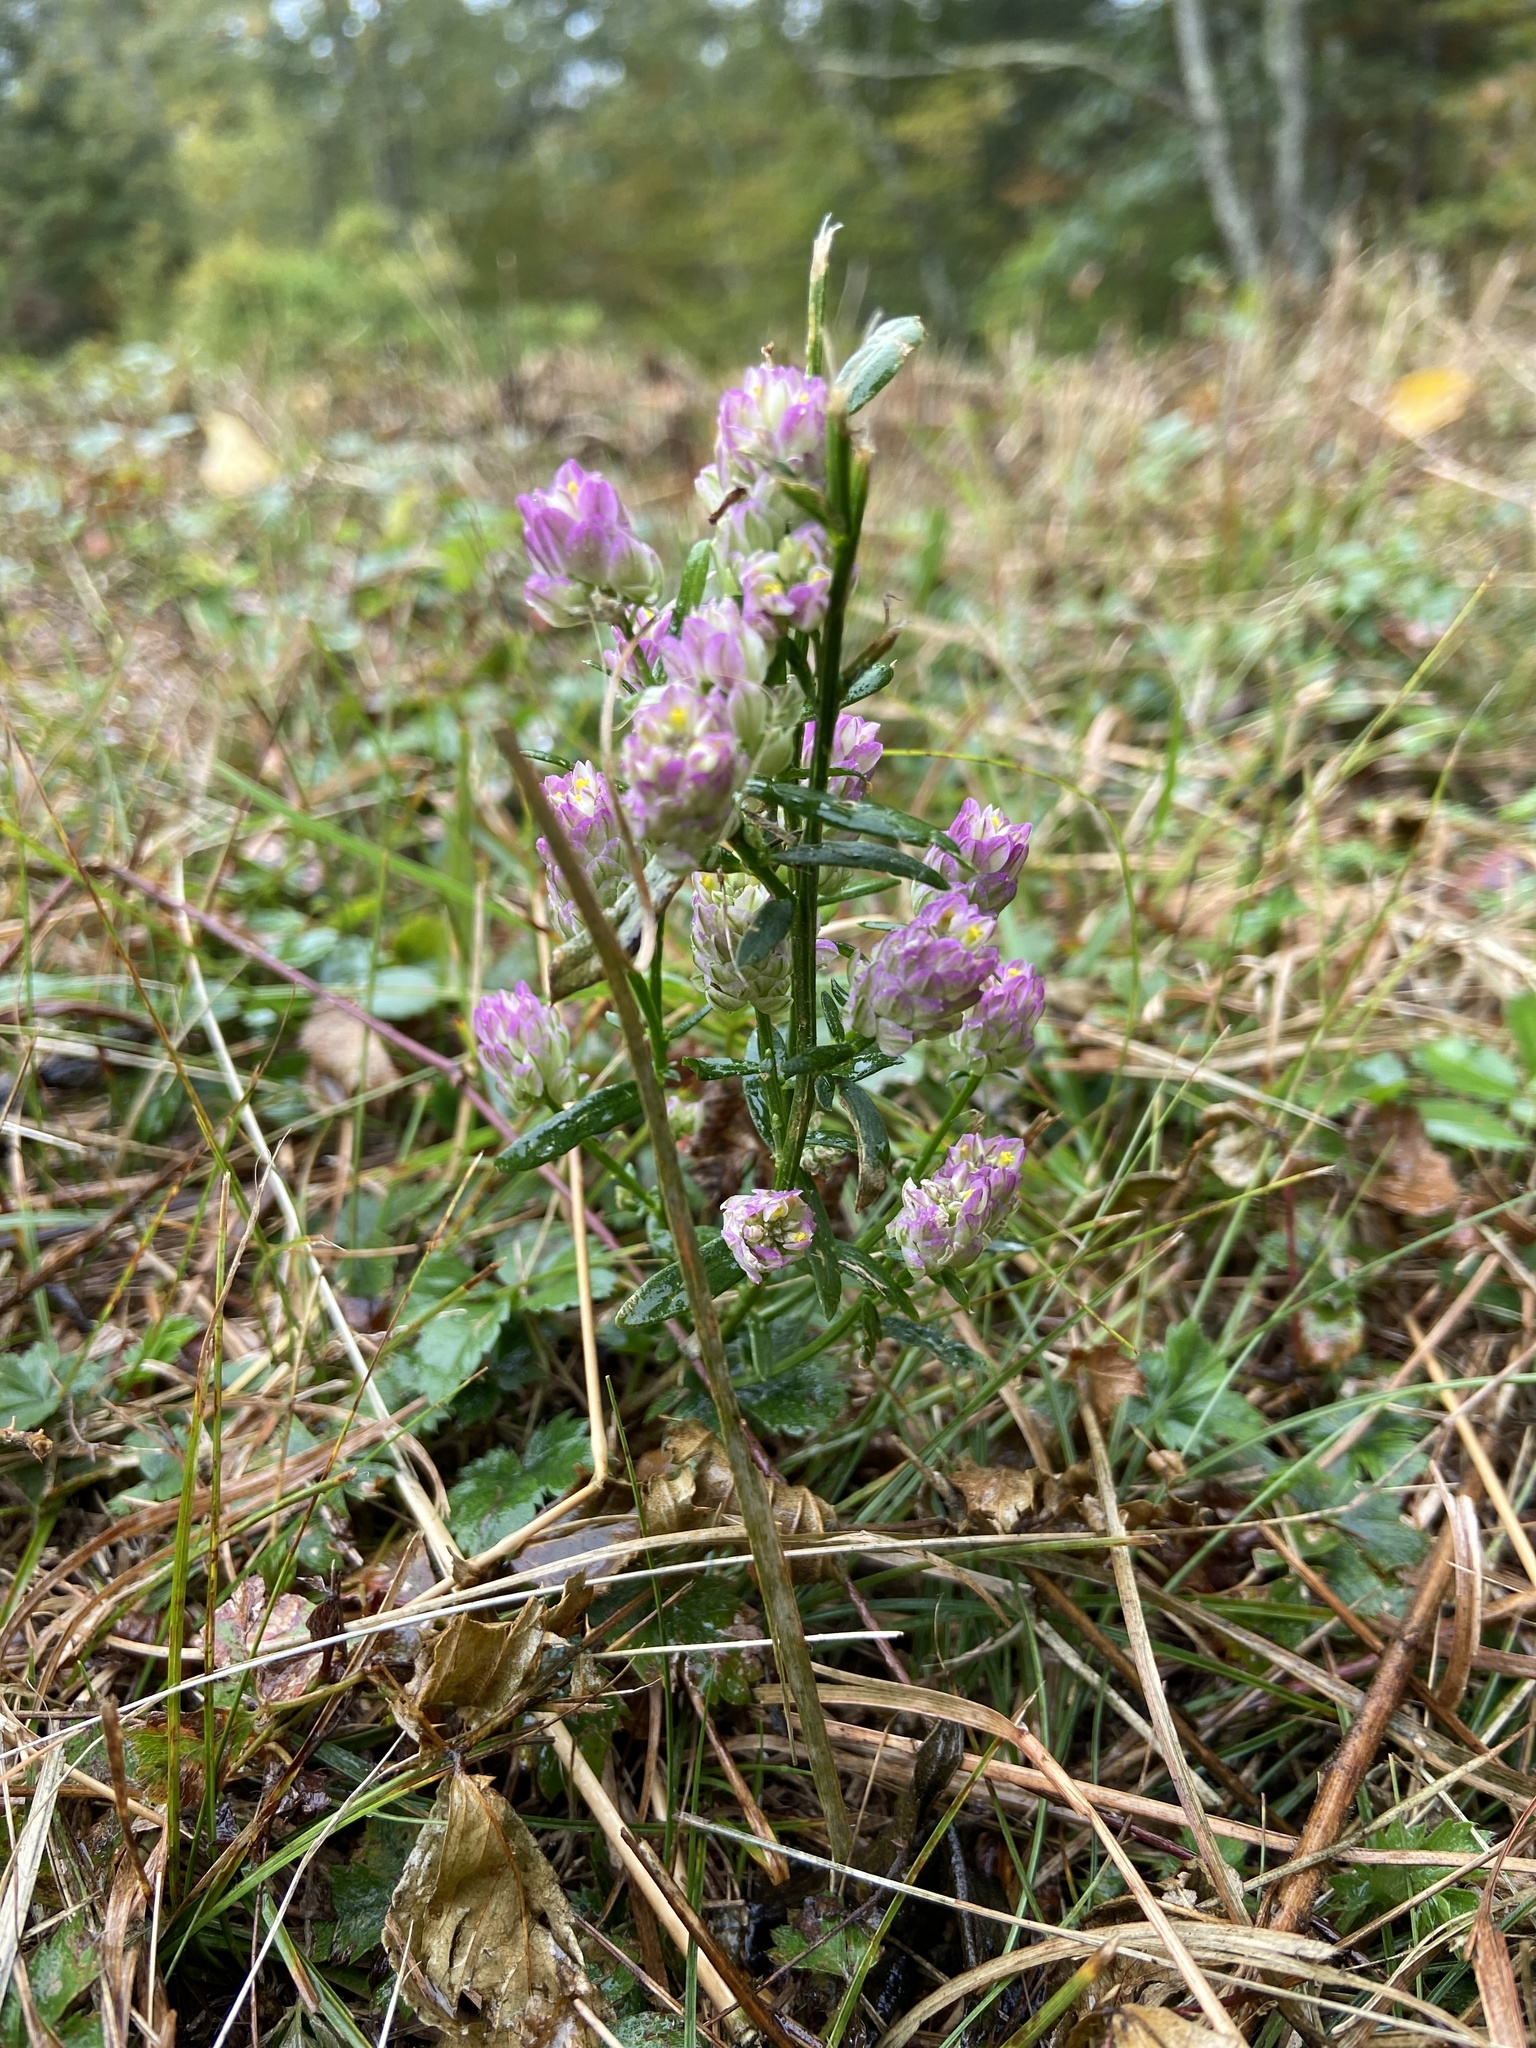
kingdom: Plantae
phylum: Tracheophyta
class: Magnoliopsida
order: Fabales
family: Polygalaceae
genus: Polygala
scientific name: Polygala sanguinea
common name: Blood milkwort
